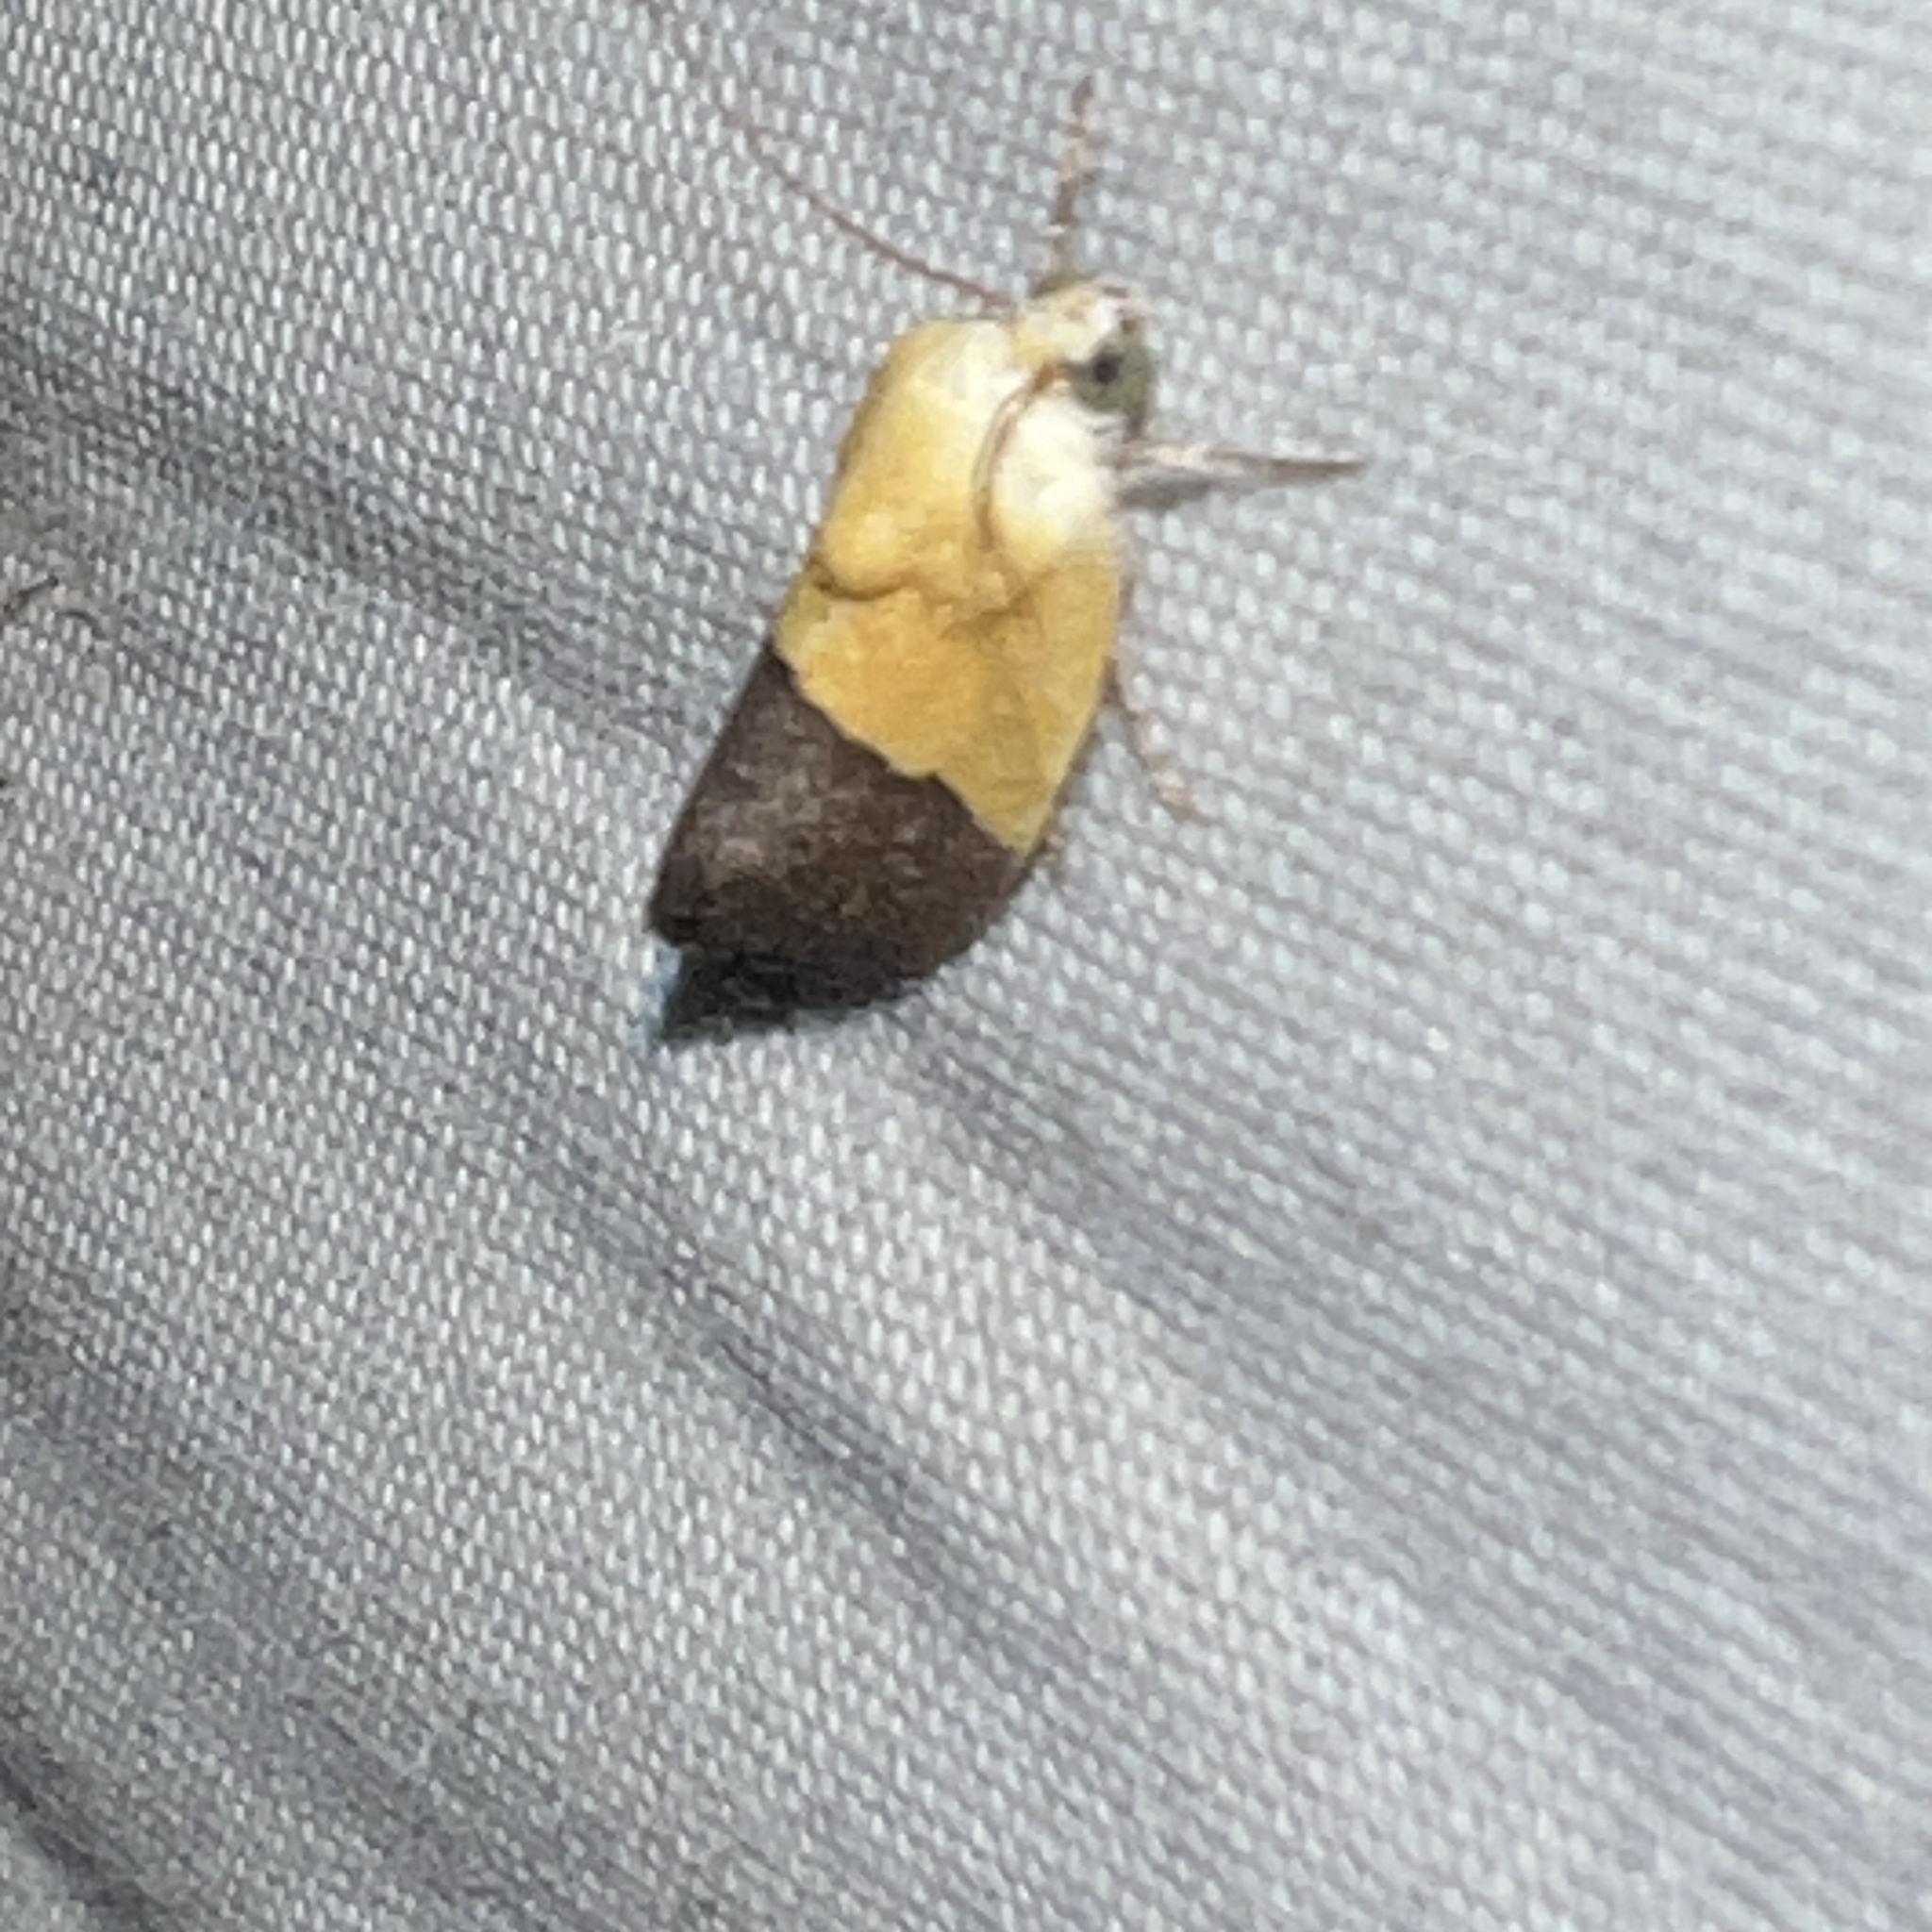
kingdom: Animalia
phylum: Arthropoda
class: Insecta
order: Lepidoptera
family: Noctuidae
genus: Acontia
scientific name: Acontia semiflava
